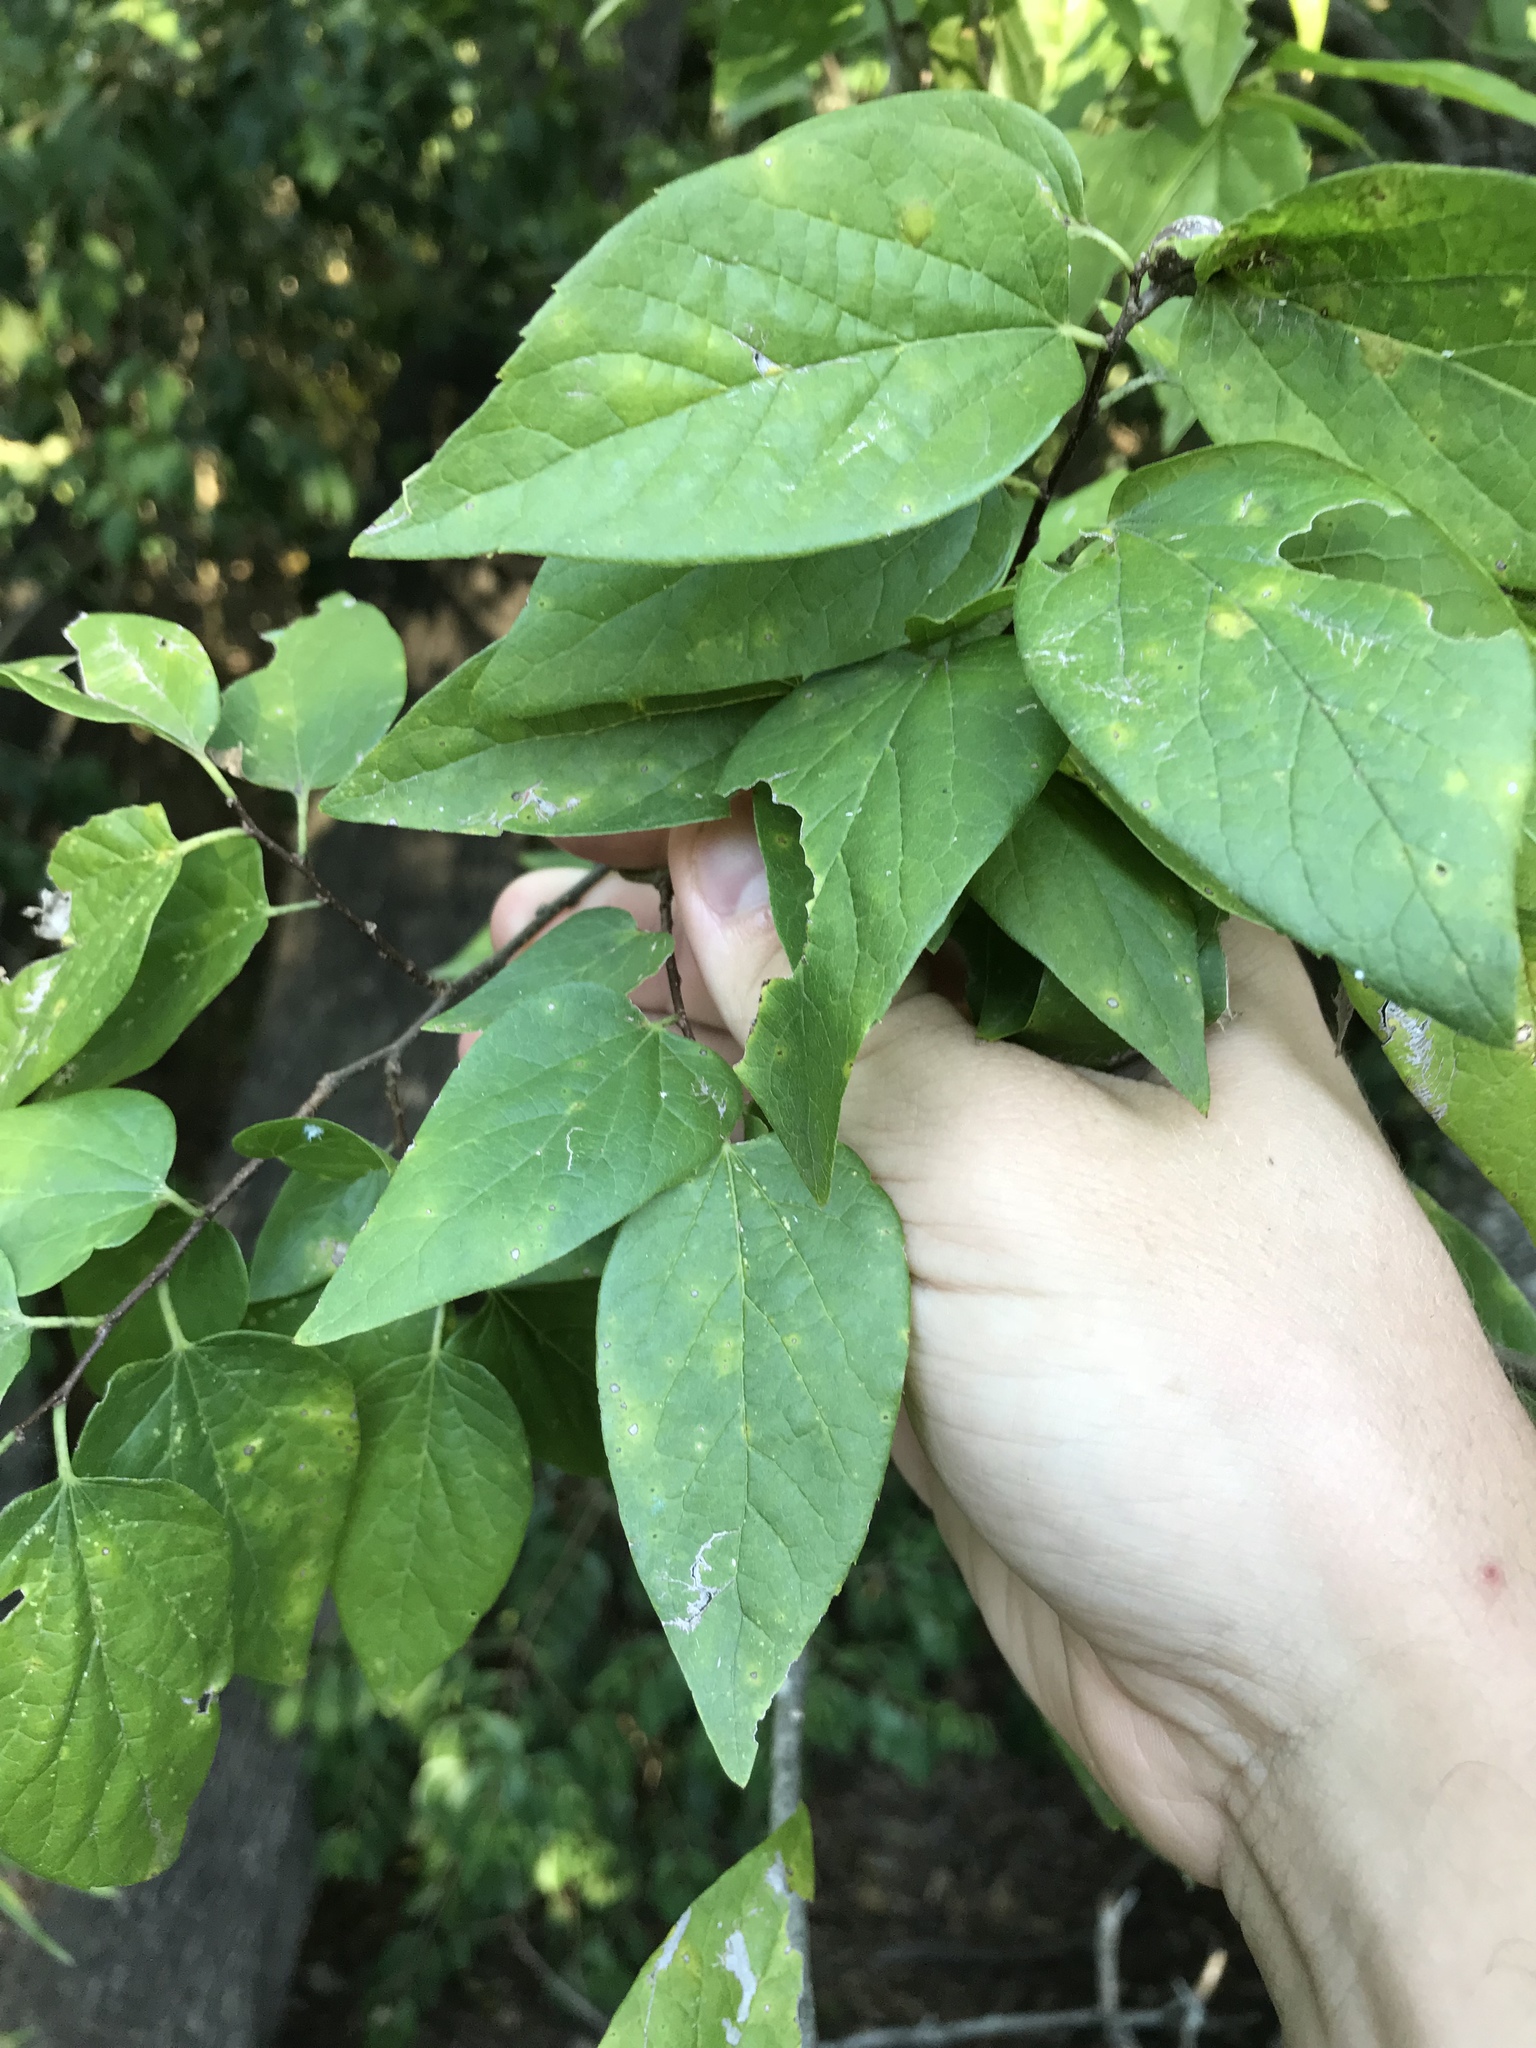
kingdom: Plantae
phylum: Tracheophyta
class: Magnoliopsida
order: Rosales
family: Cannabaceae
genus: Celtis
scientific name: Celtis laevigata
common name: Sugarberry
